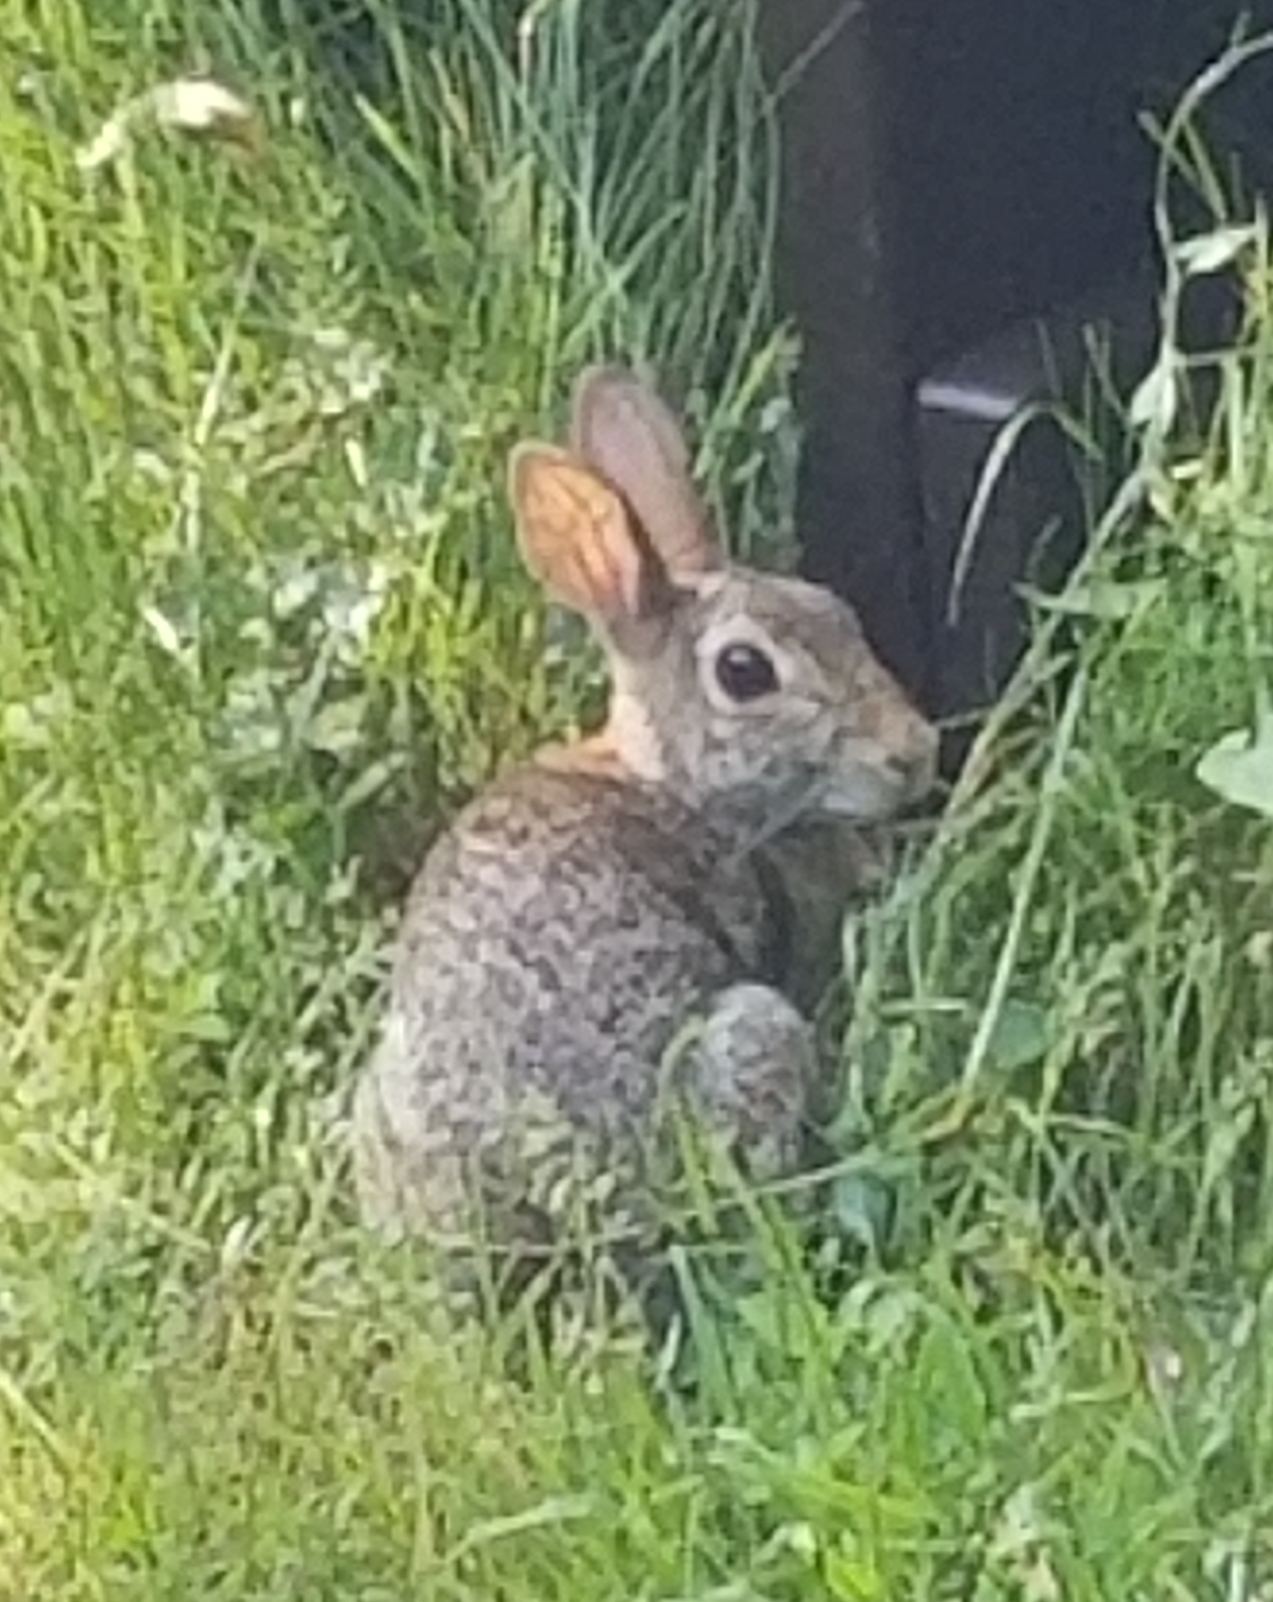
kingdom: Animalia
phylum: Chordata
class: Mammalia
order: Lagomorpha
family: Leporidae
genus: Sylvilagus
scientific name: Sylvilagus floridanus
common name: Eastern cottontail
